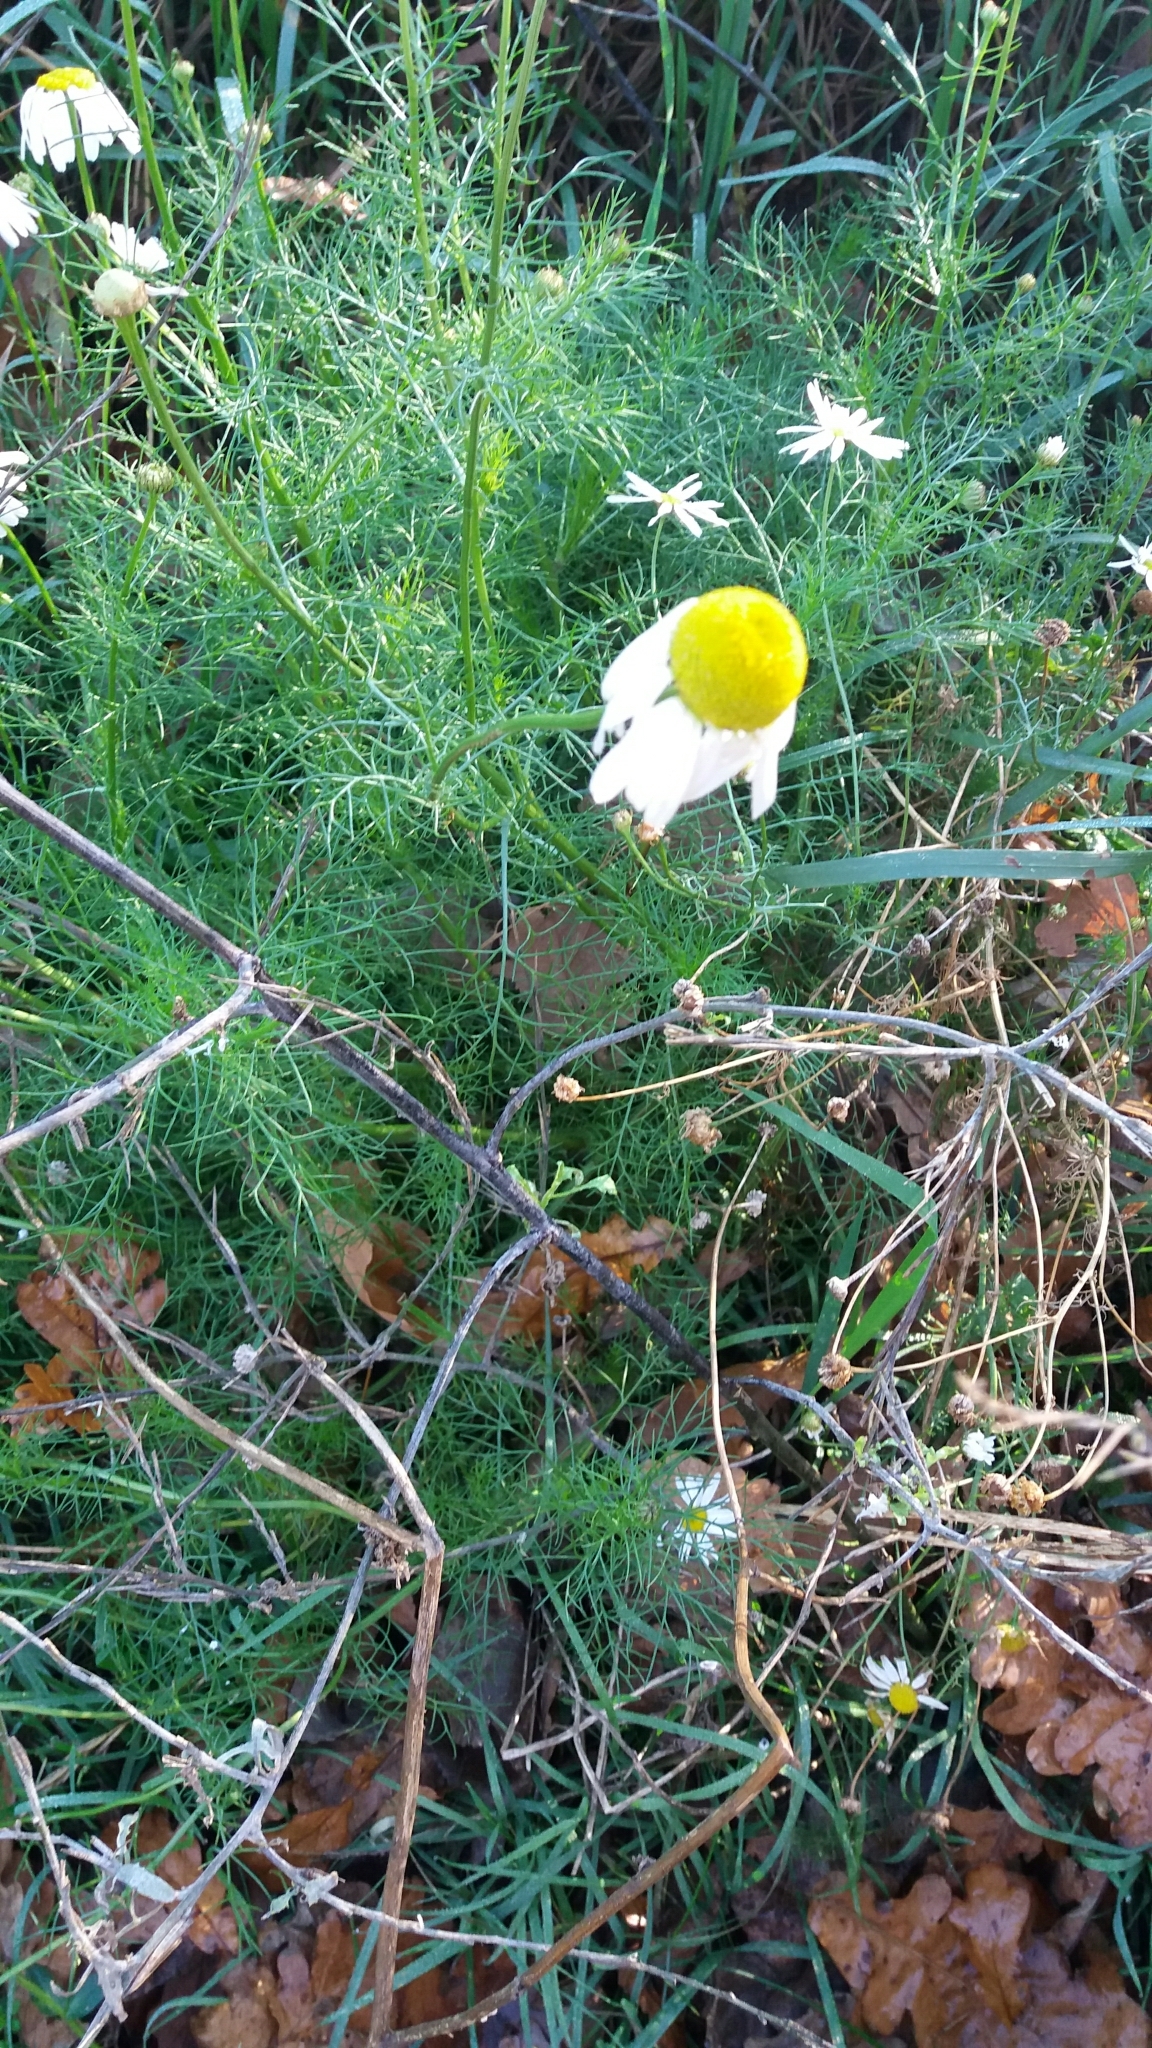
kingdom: Plantae
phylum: Tracheophyta
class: Magnoliopsida
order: Asterales
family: Asteraceae
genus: Tripleurospermum
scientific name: Tripleurospermum inodorum
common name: Scentless mayweed
